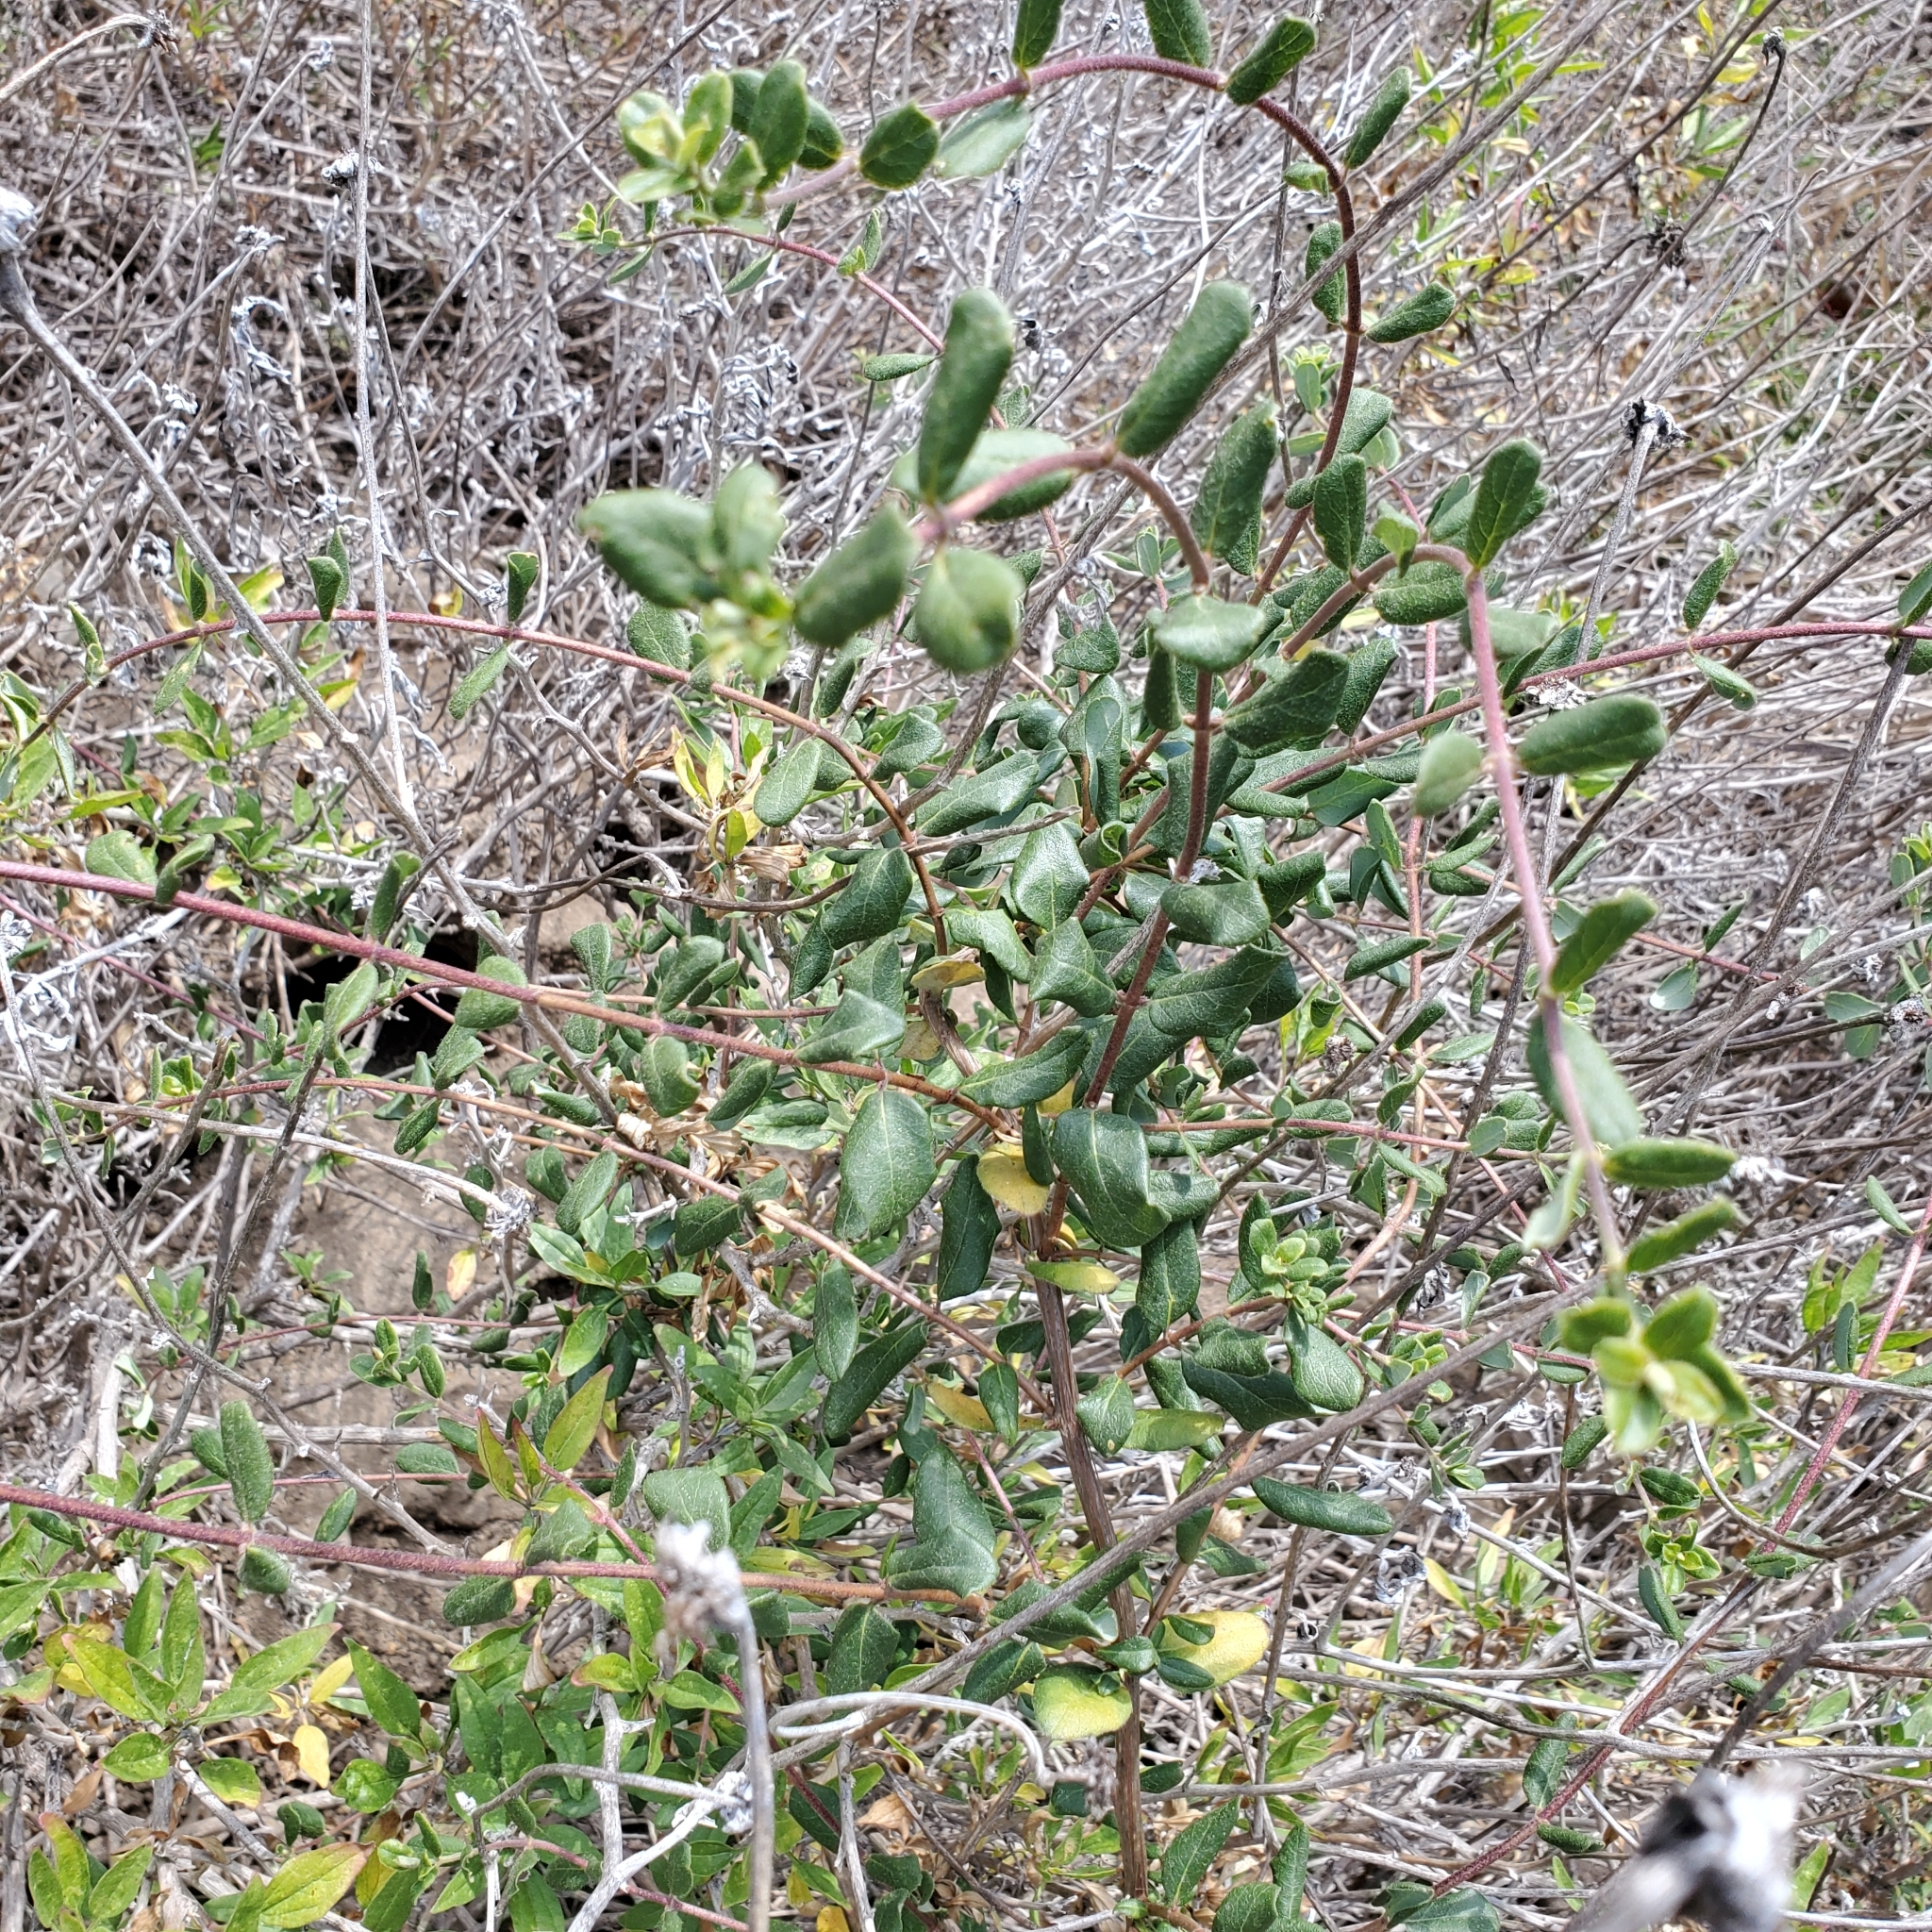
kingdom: Plantae
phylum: Tracheophyta
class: Magnoliopsida
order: Dipsacales
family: Caprifoliaceae
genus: Lonicera
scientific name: Lonicera subspicata
